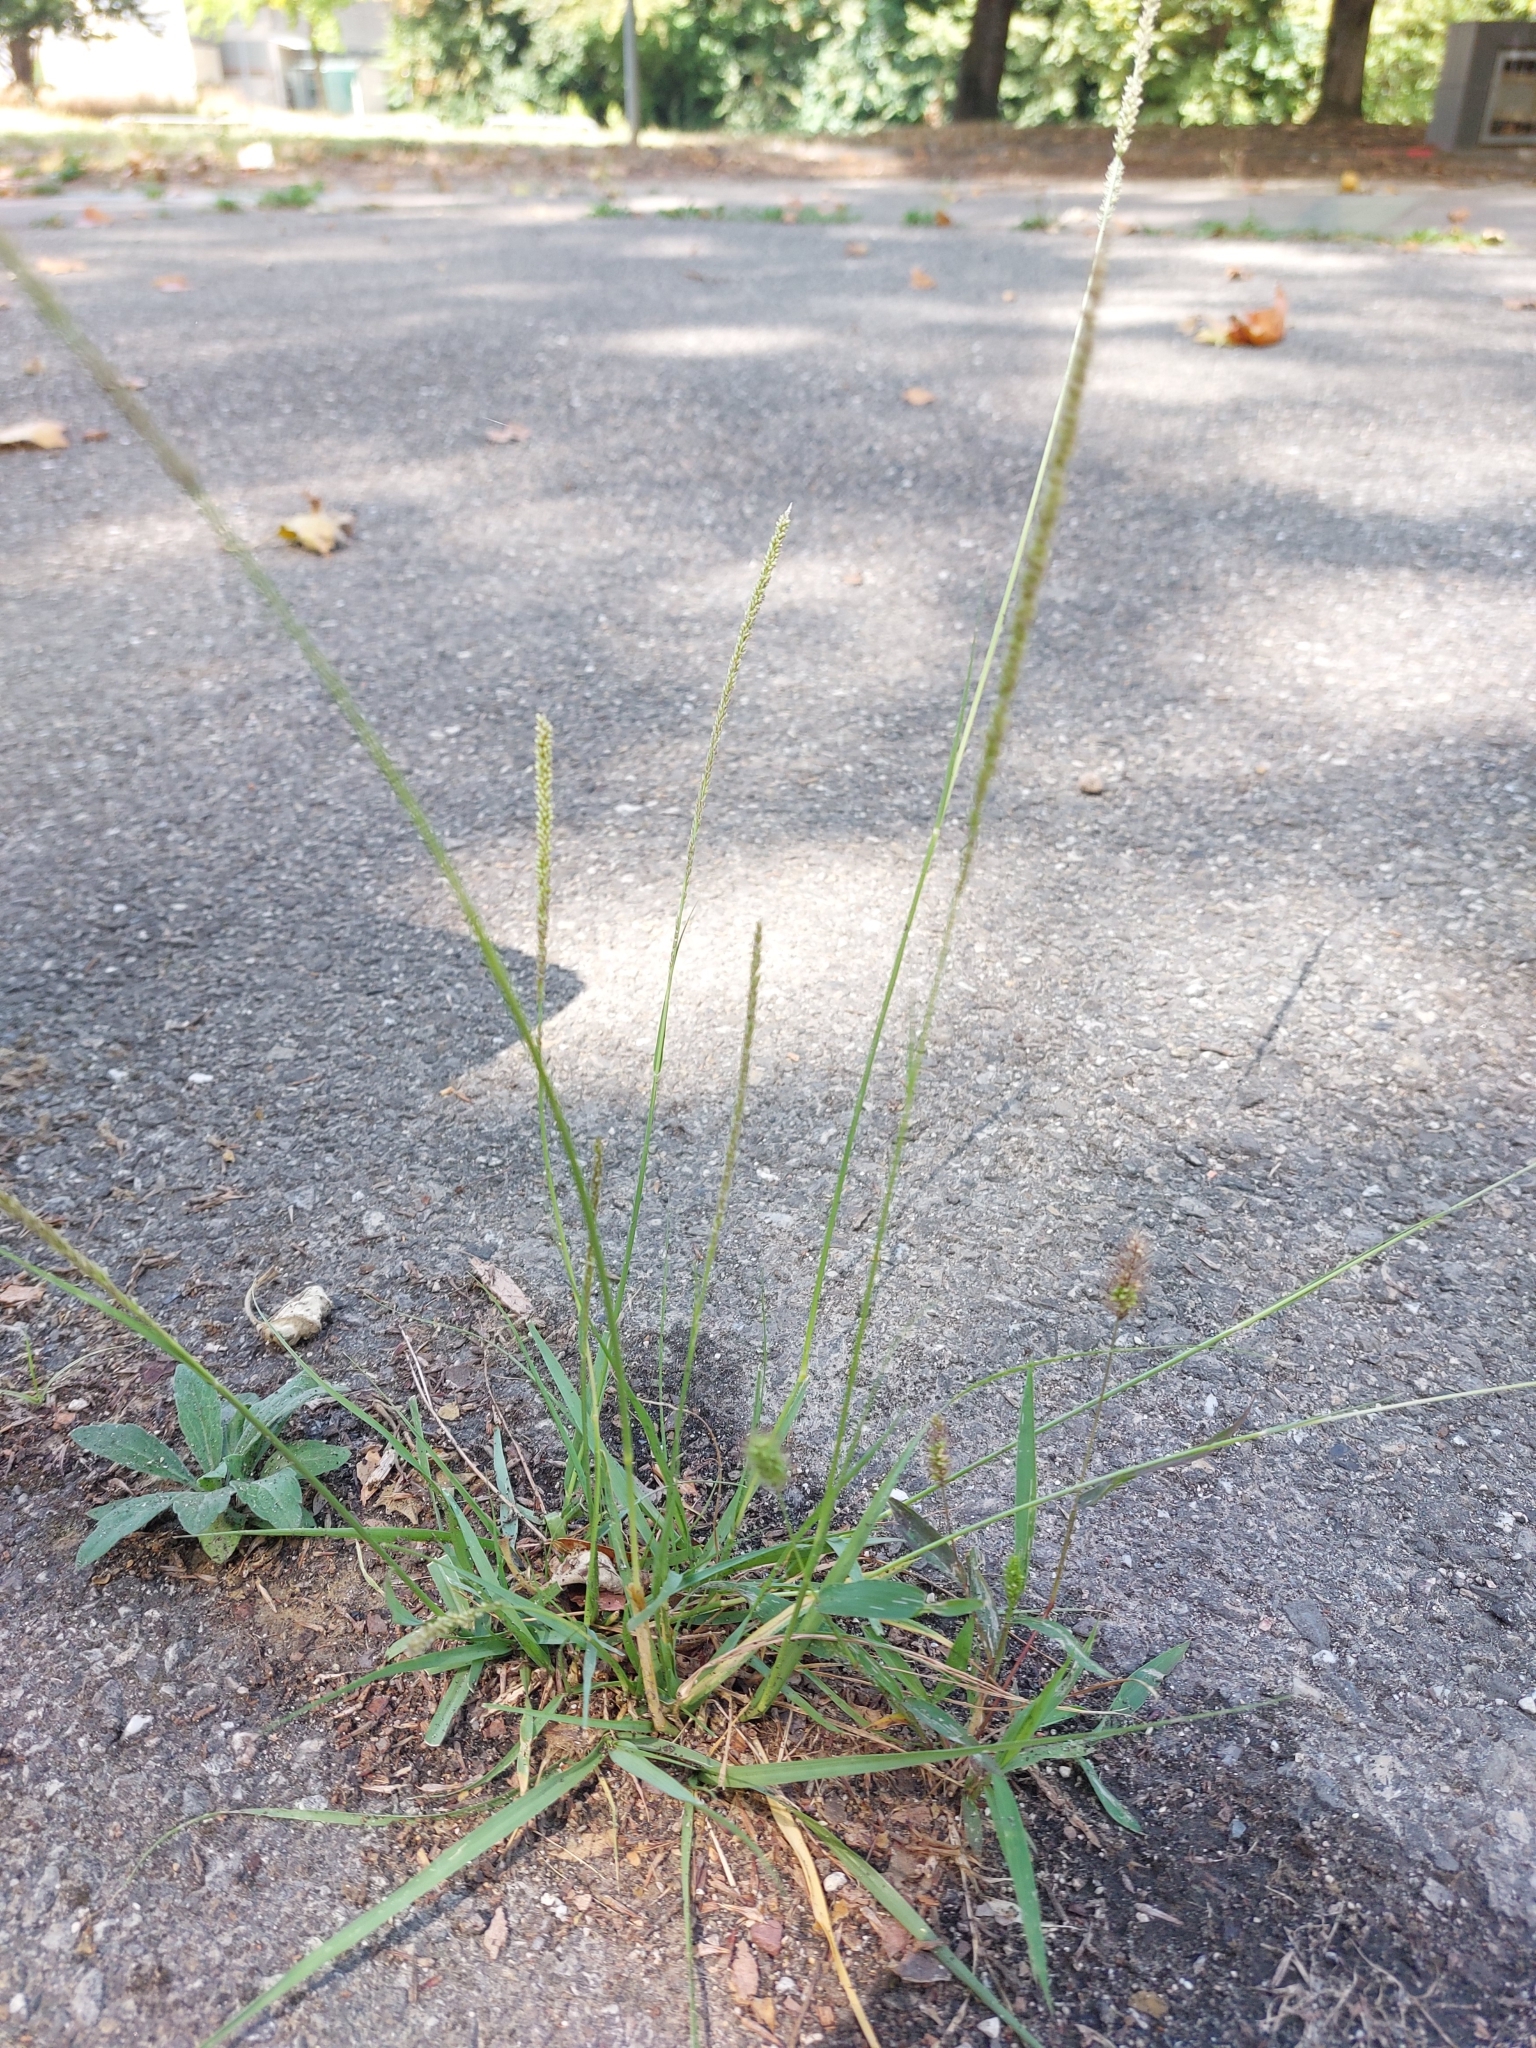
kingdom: Plantae
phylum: Tracheophyta
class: Liliopsida
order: Poales
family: Poaceae
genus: Sporobolus
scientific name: Sporobolus indicus
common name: Smut grass
